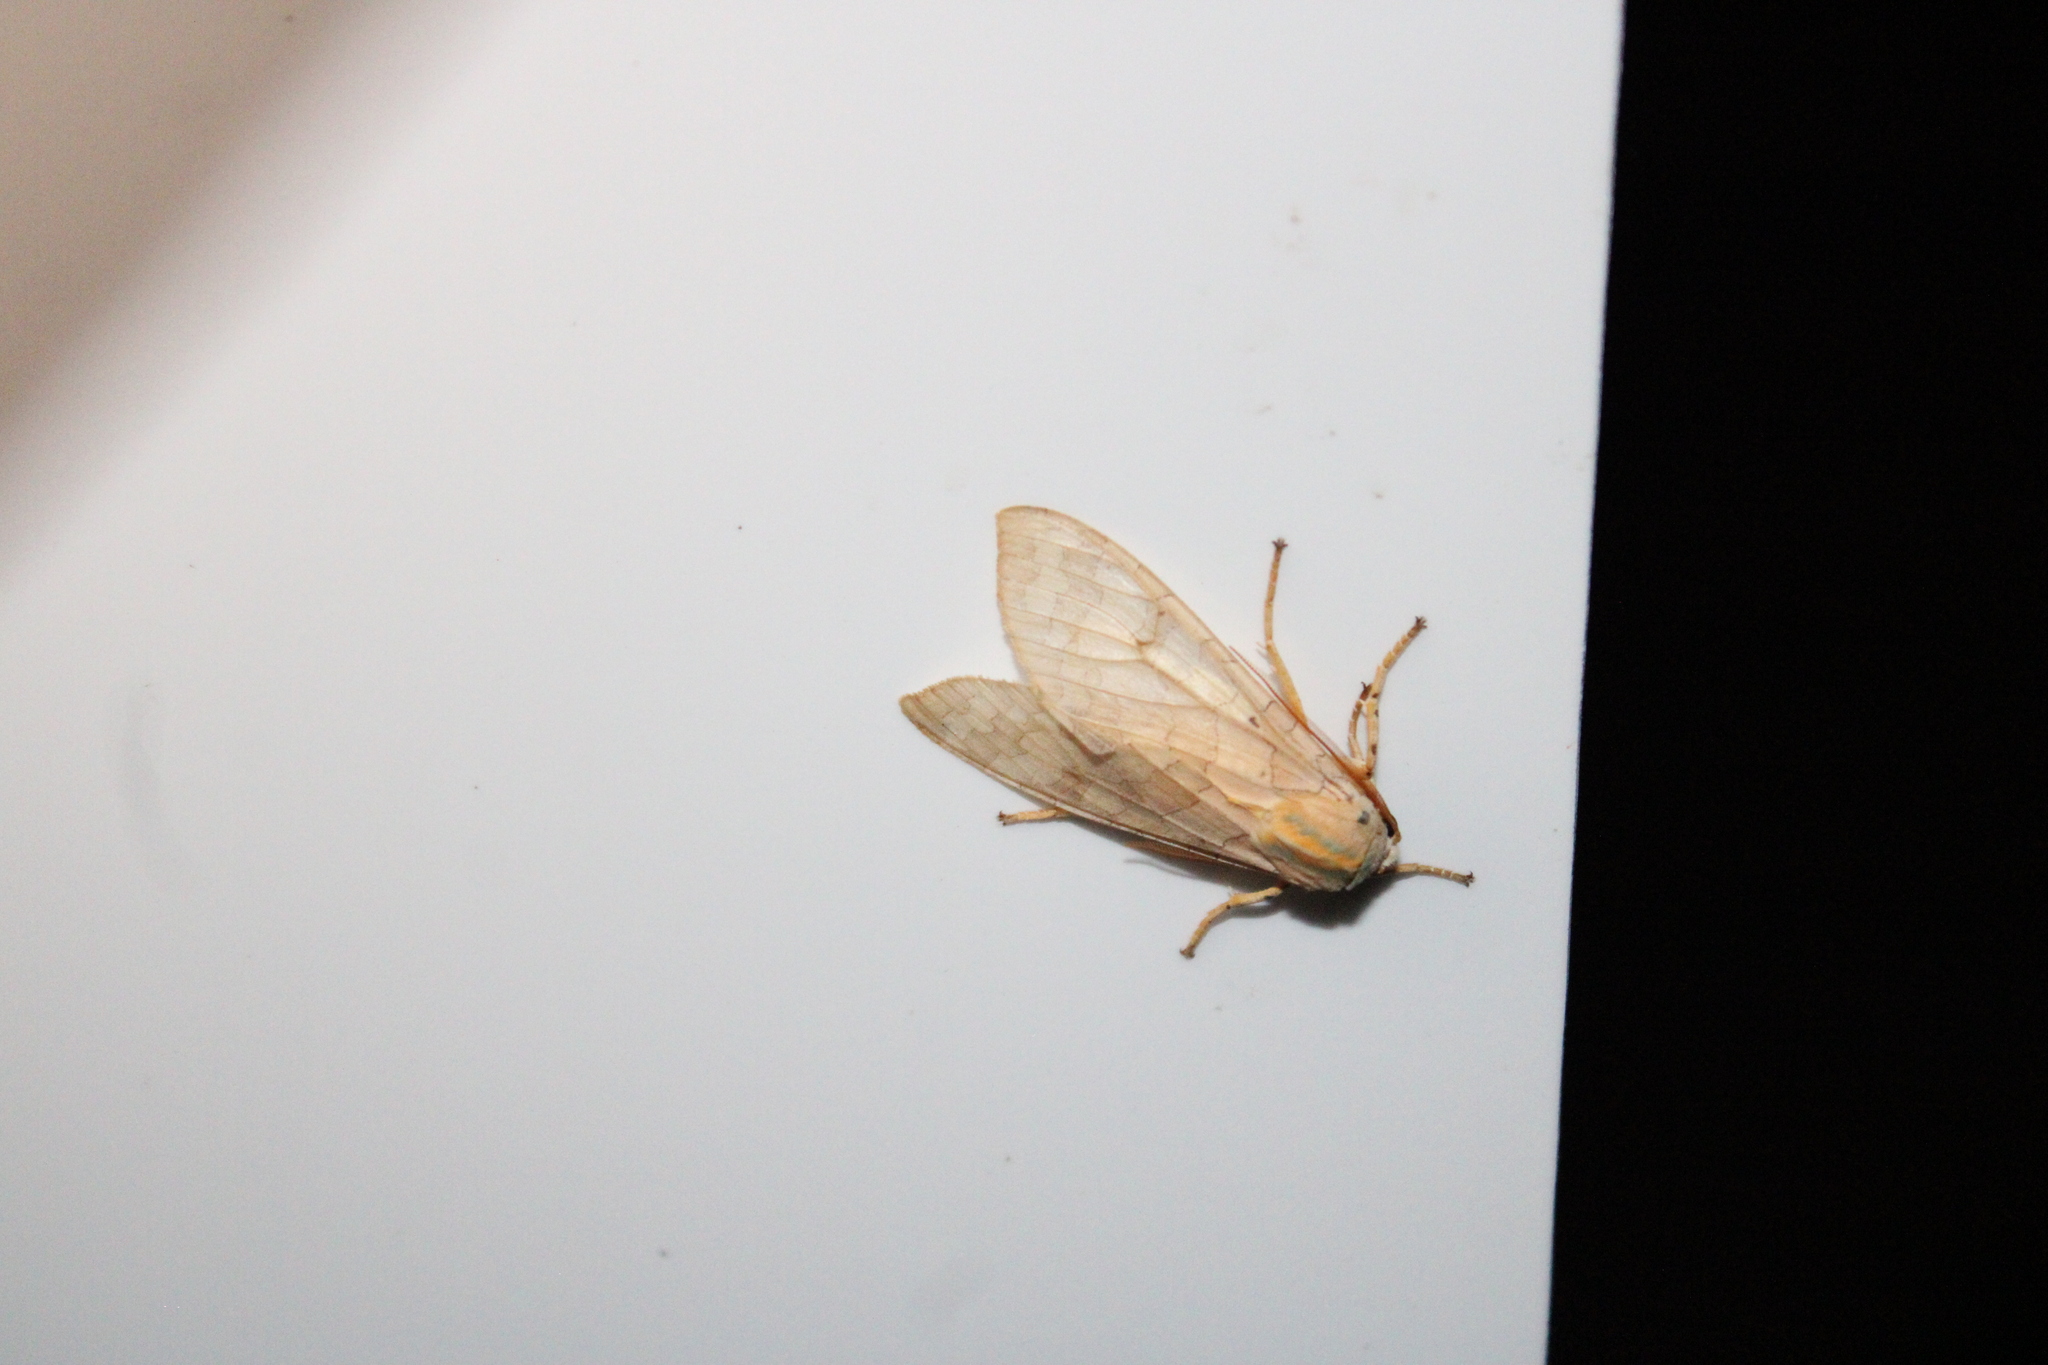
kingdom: Animalia
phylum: Arthropoda
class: Insecta
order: Lepidoptera
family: Erebidae
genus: Halysidota
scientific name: Halysidota
